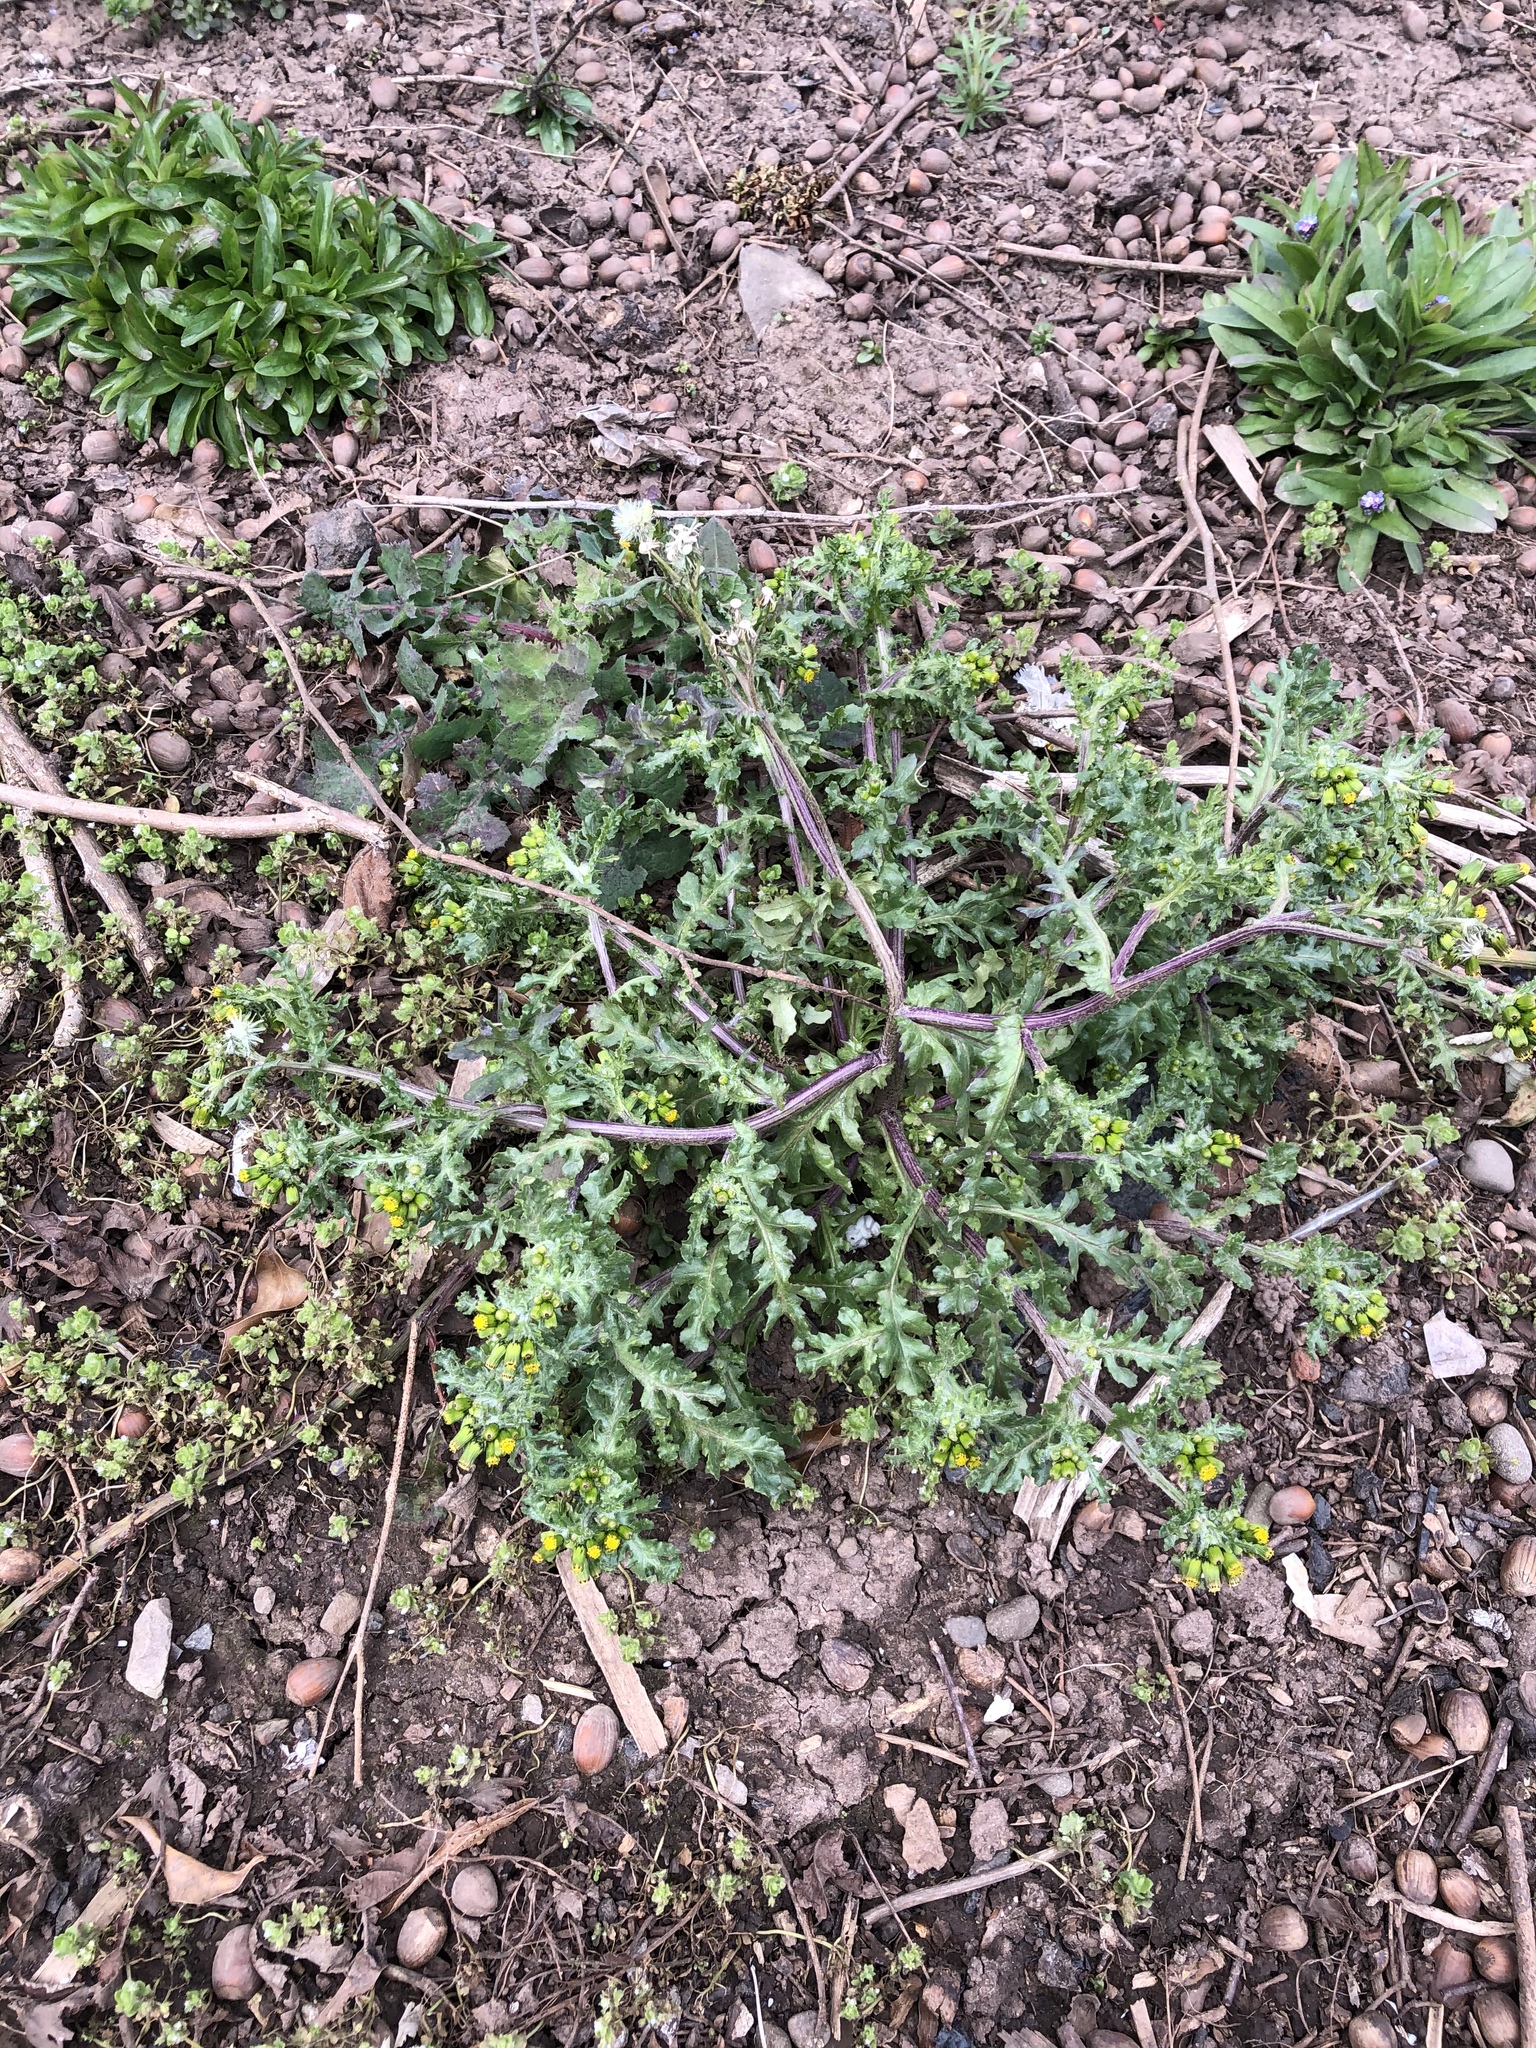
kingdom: Plantae
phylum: Tracheophyta
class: Magnoliopsida
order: Asterales
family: Asteraceae
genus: Senecio
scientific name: Senecio vulgaris
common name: Old-man-in-the-spring
